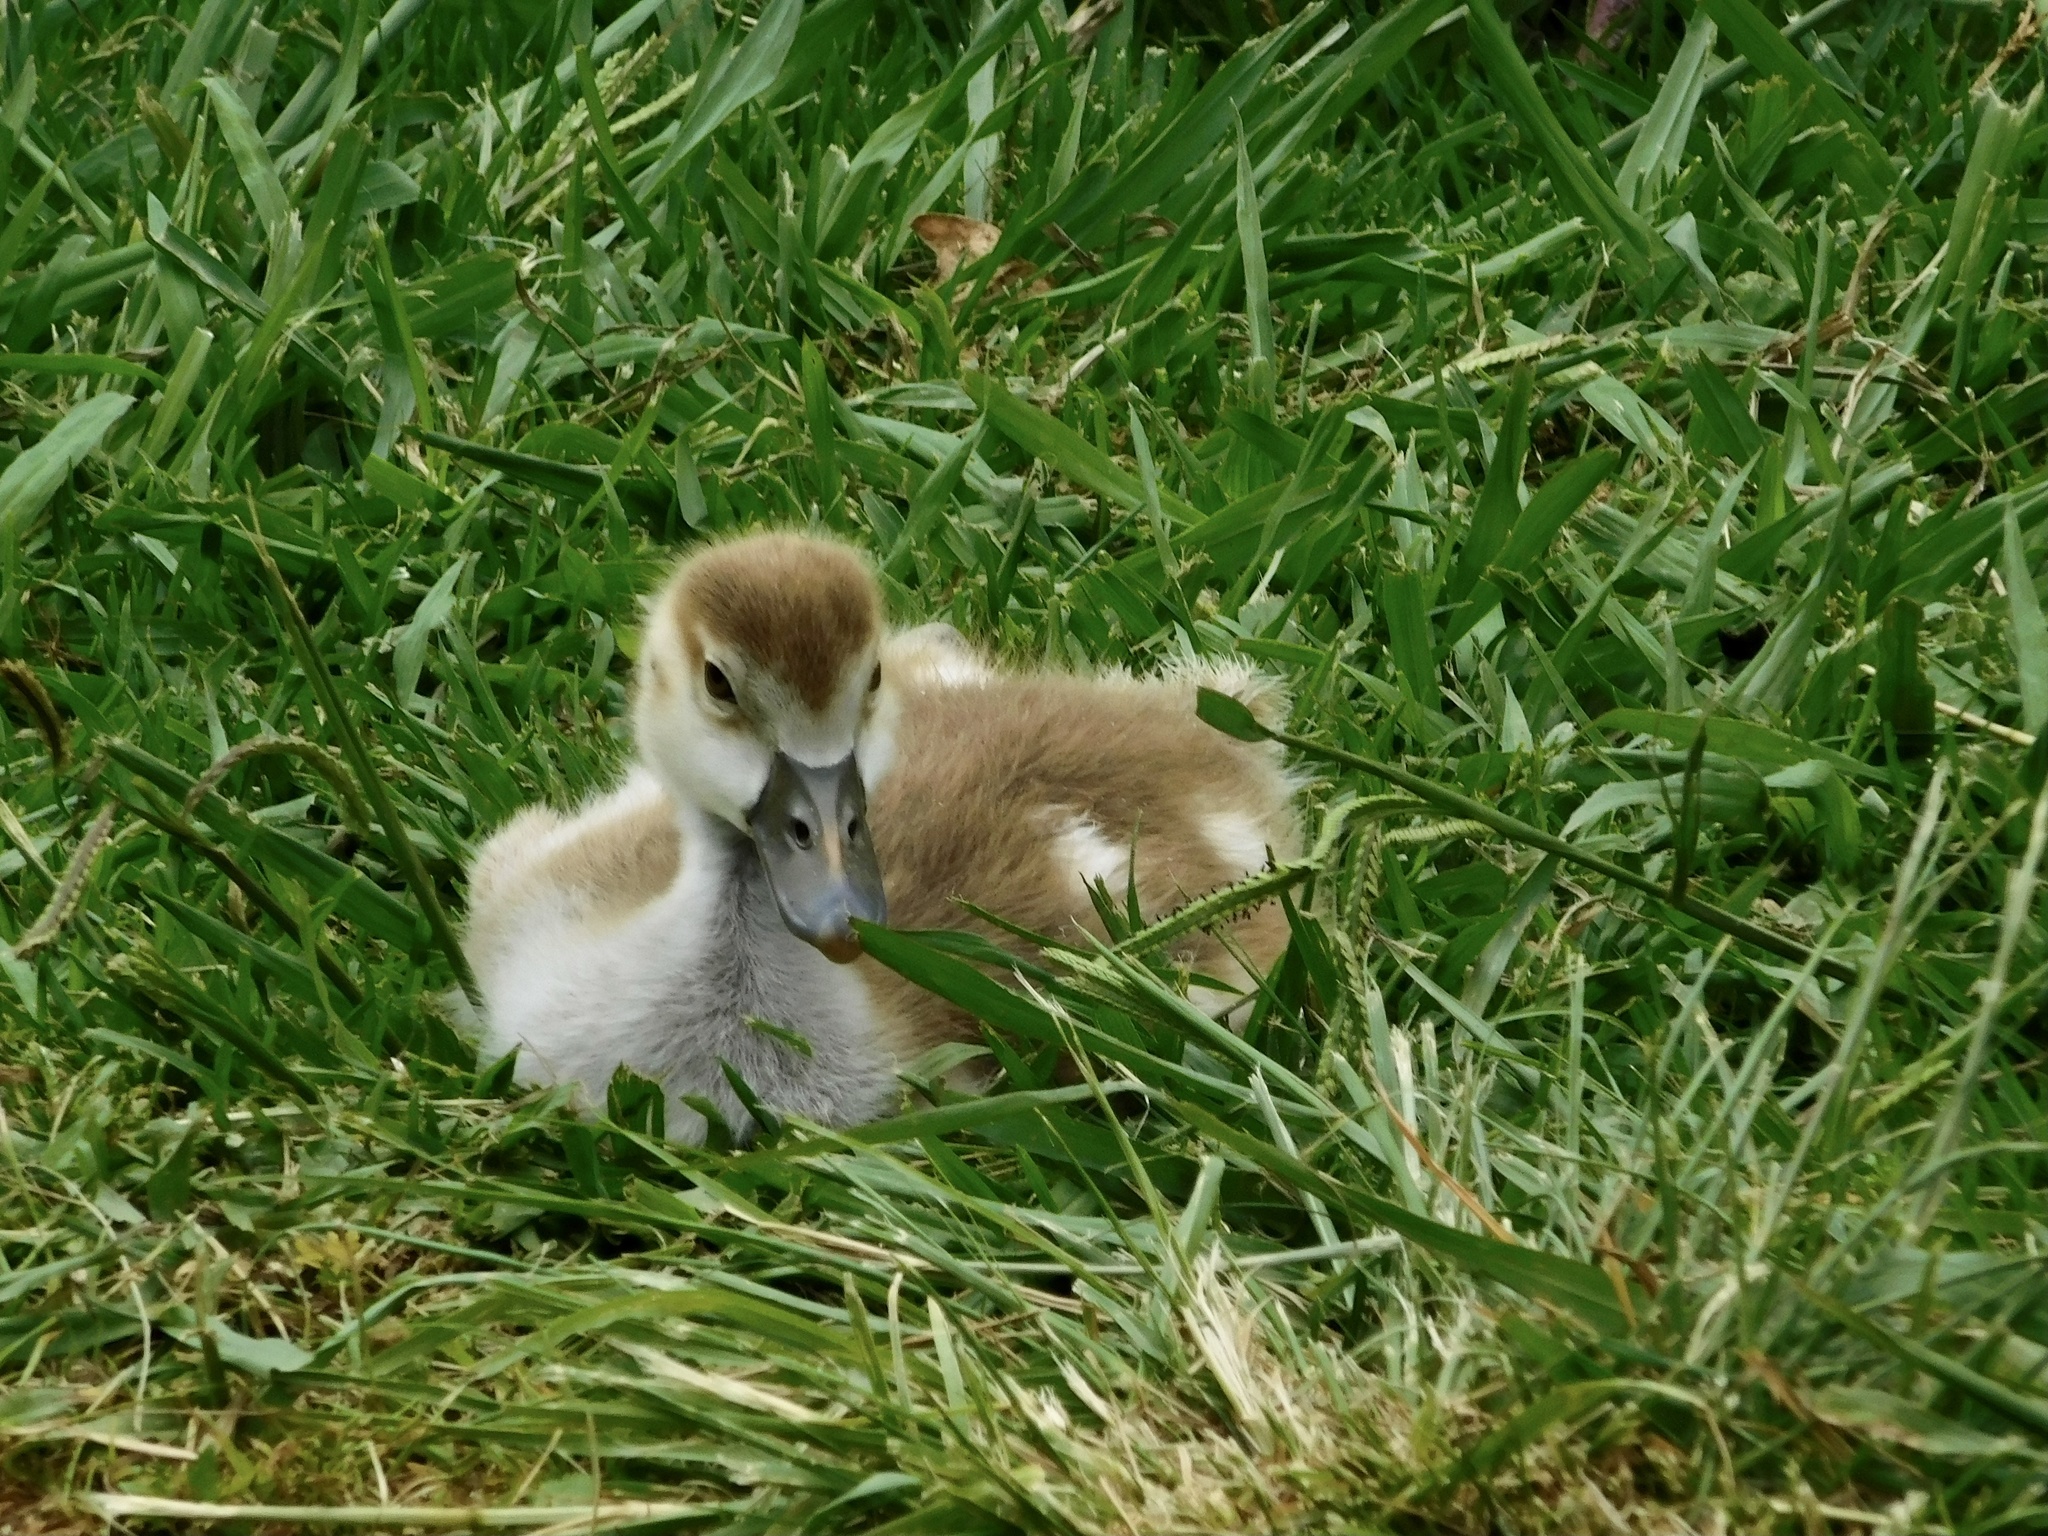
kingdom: Animalia
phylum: Chordata
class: Aves
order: Anseriformes
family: Anatidae
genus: Alopochen
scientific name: Alopochen aegyptiaca
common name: Egyptian goose
